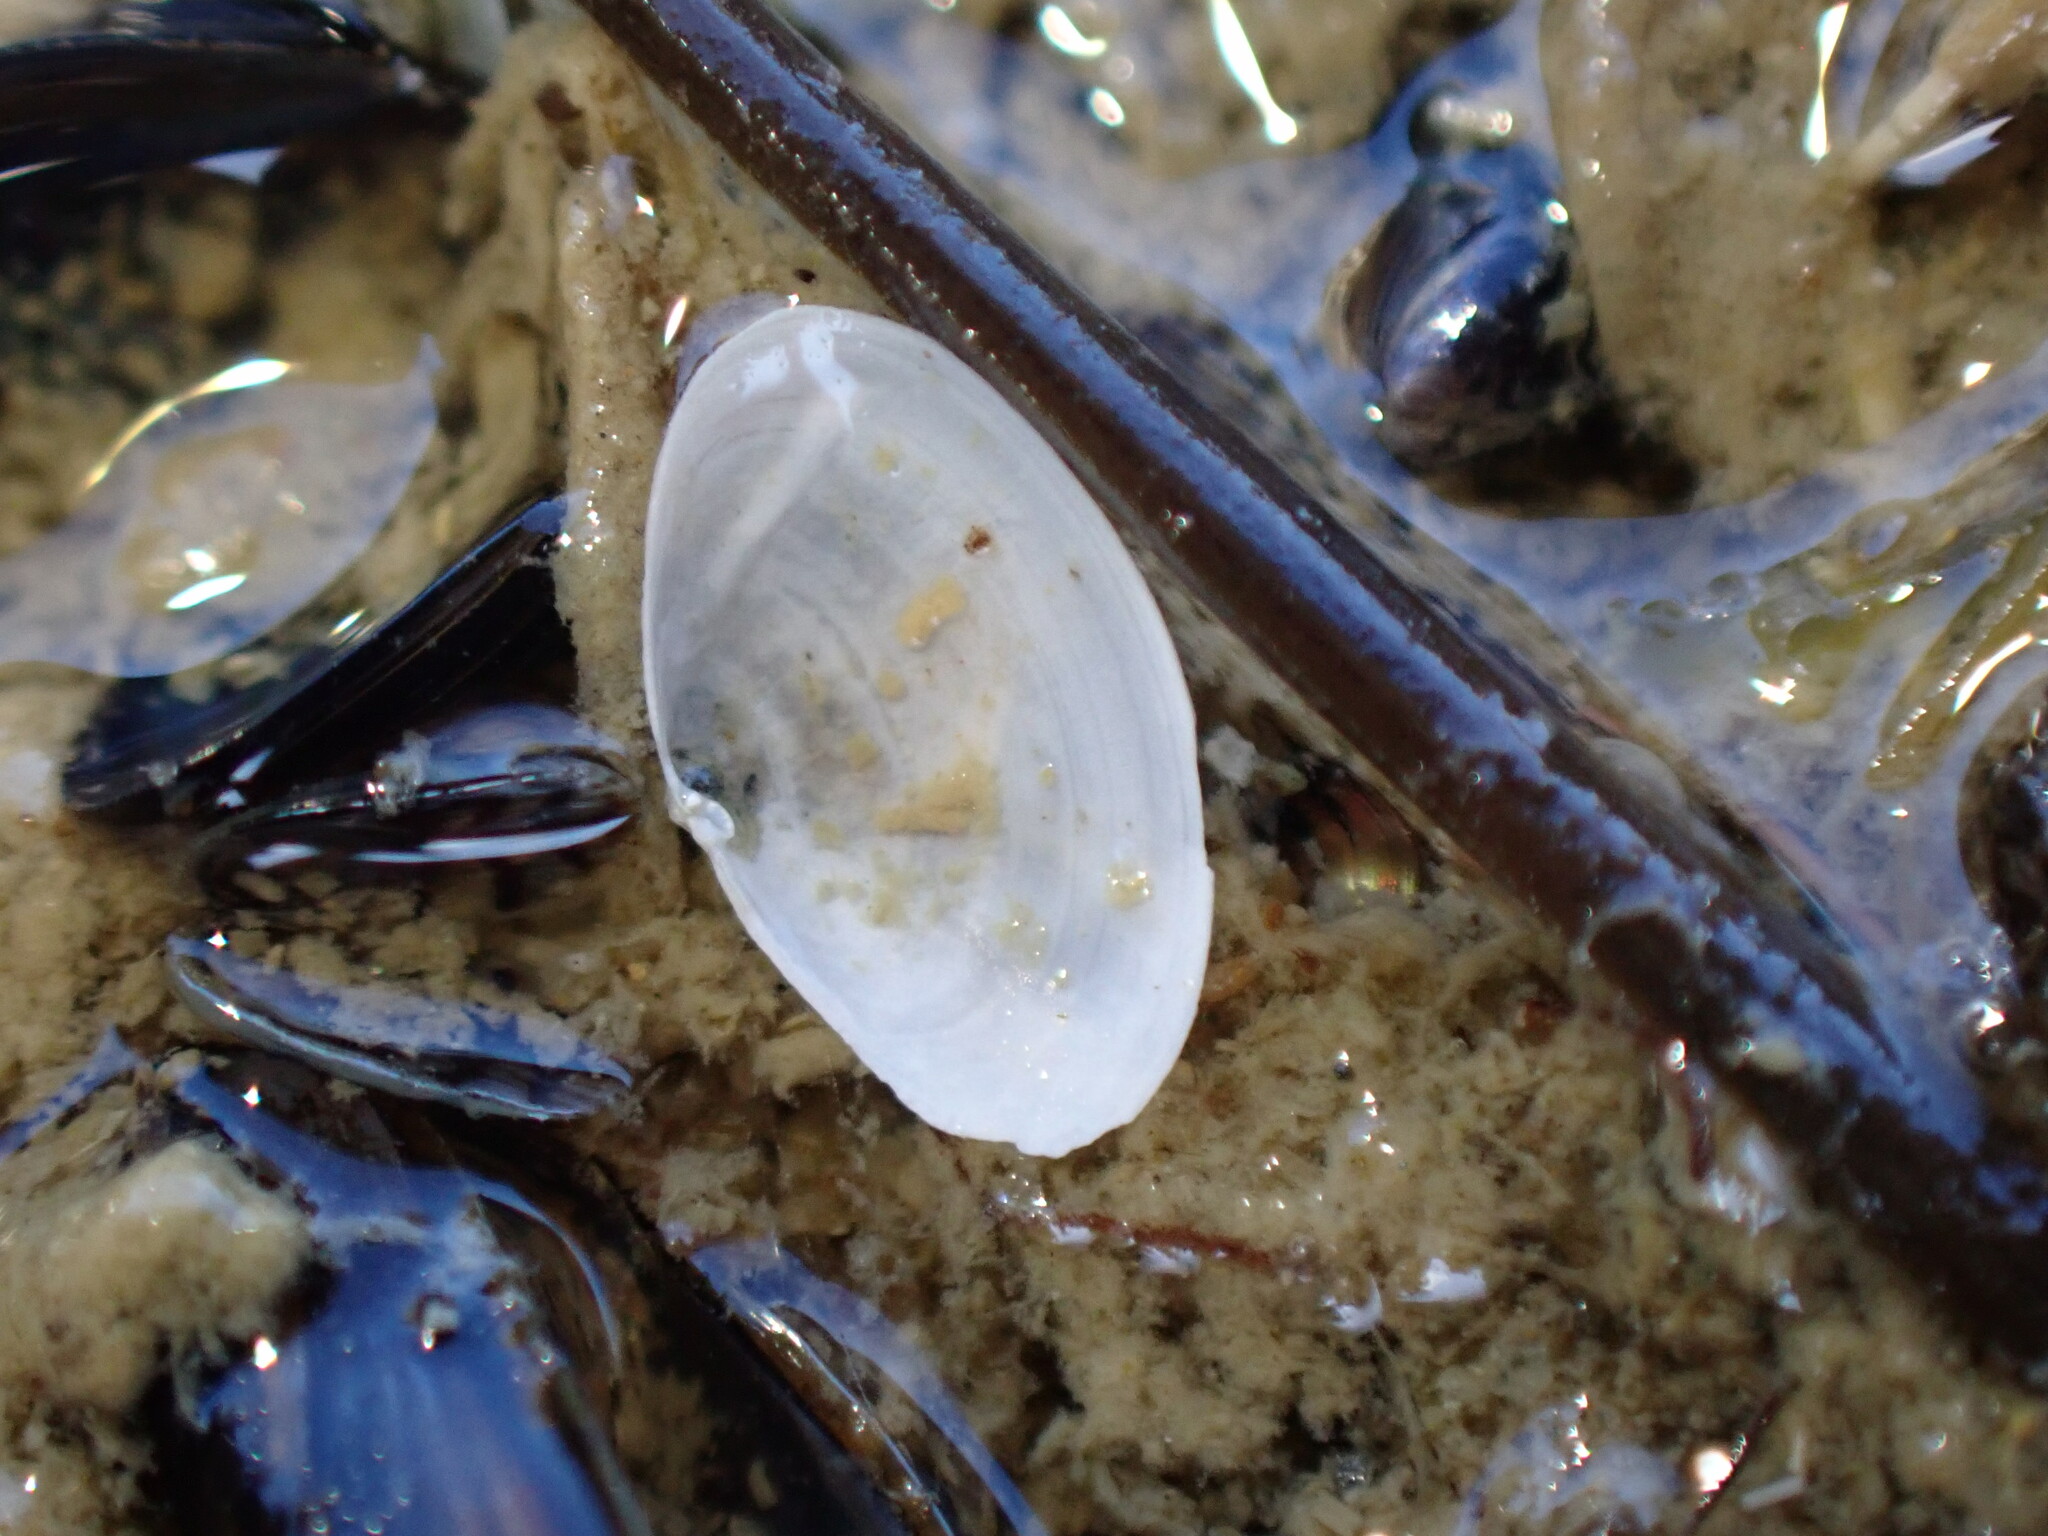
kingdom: Animalia
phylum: Mollusca
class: Bivalvia
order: Cardiida
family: Semelidae
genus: Theora
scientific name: Theora lubrica
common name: Asian semele
